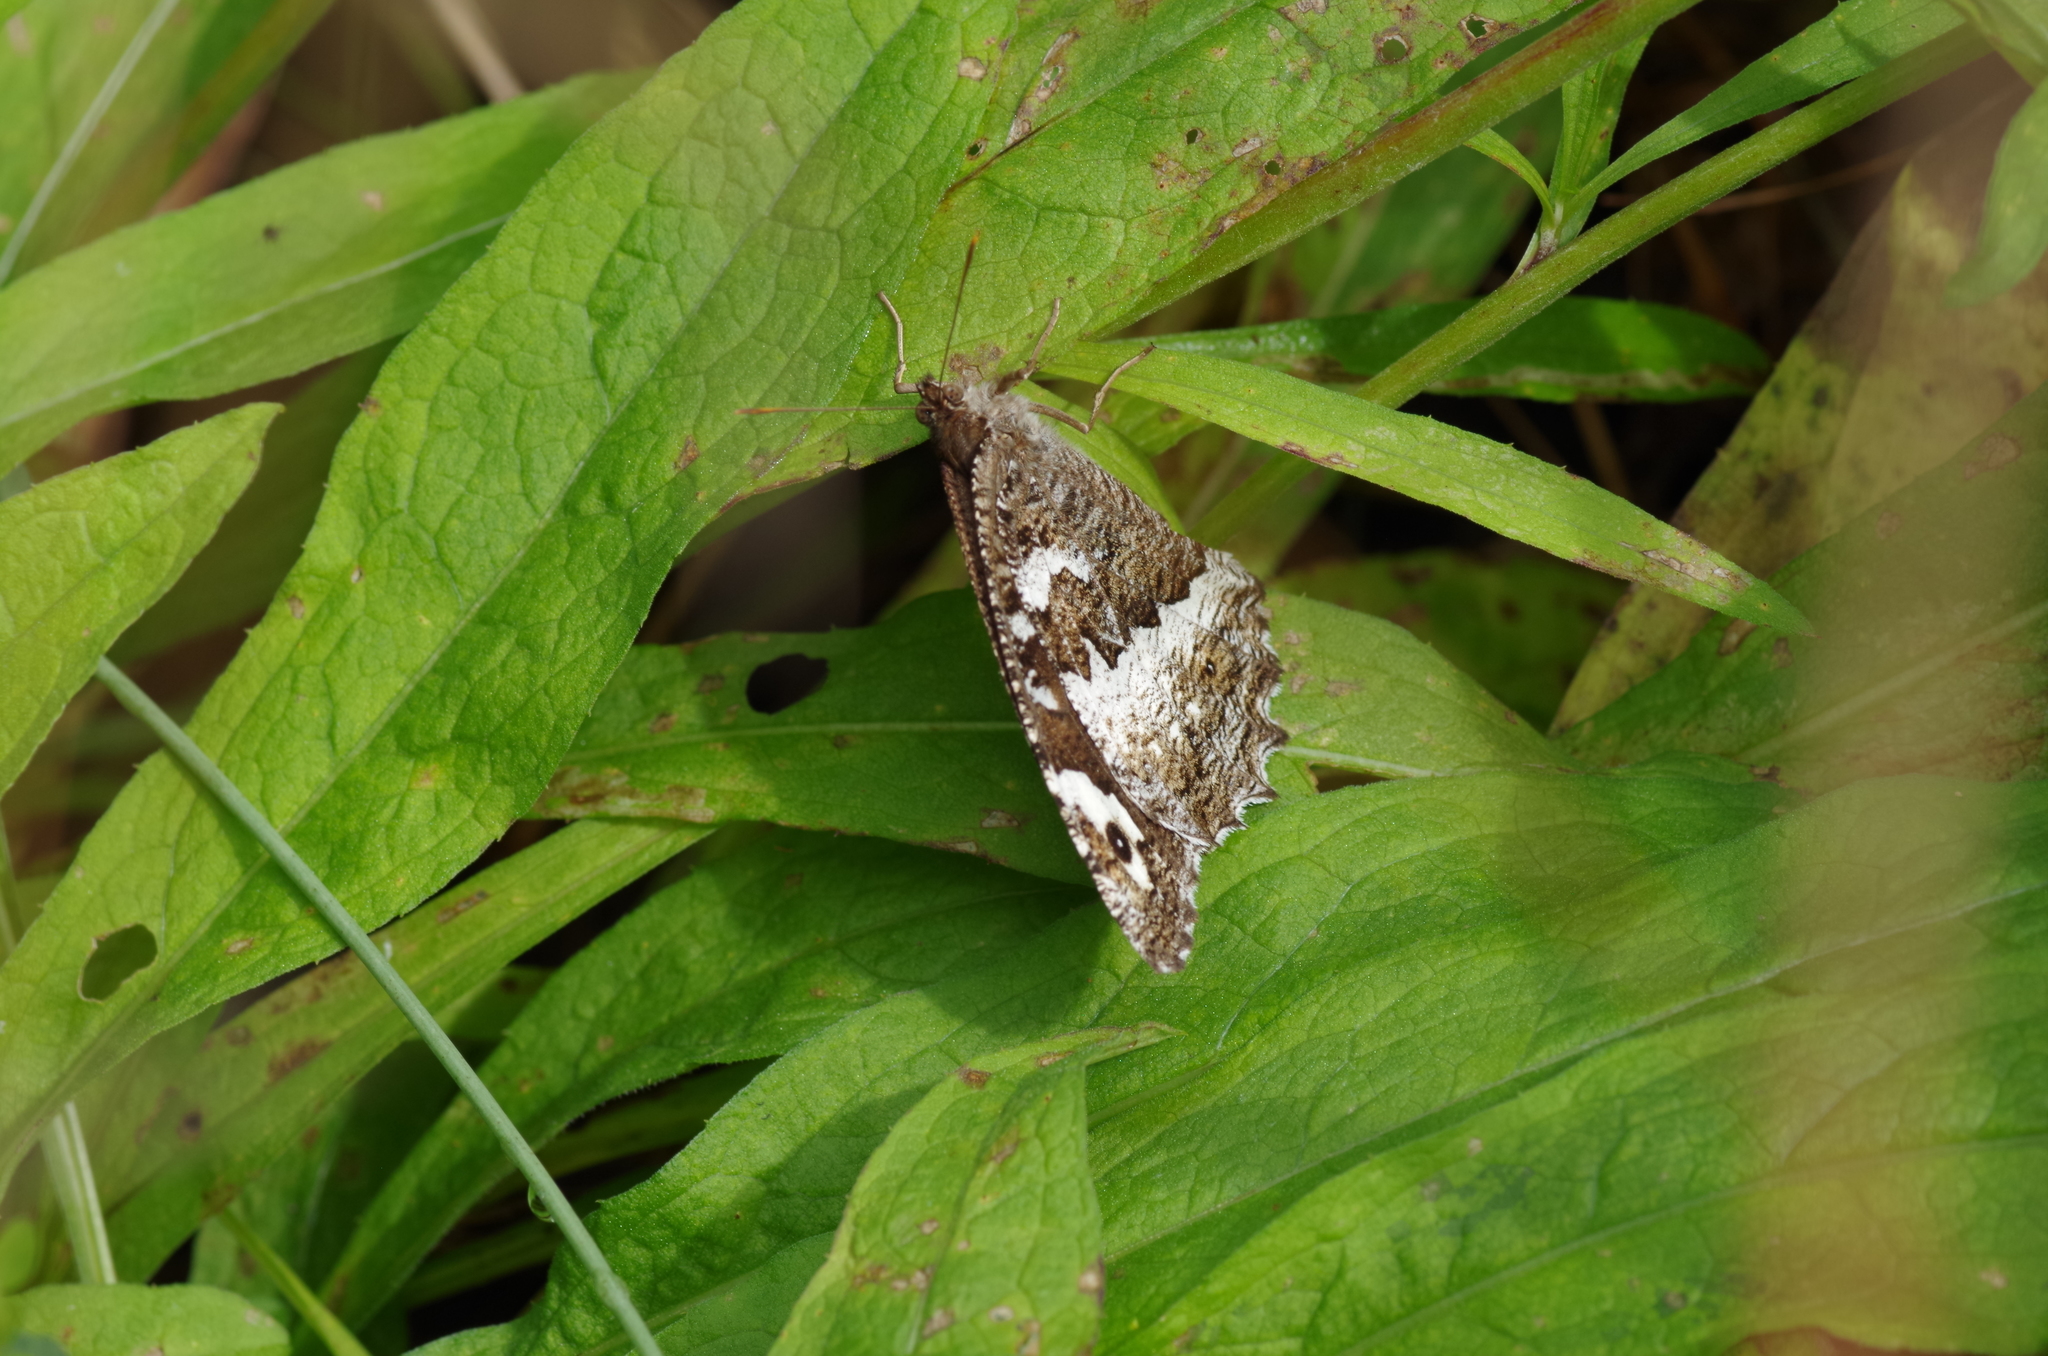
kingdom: Animalia
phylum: Arthropoda
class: Insecta
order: Lepidoptera
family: Lycaenidae
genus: Loweia
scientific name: Loweia tityrus
